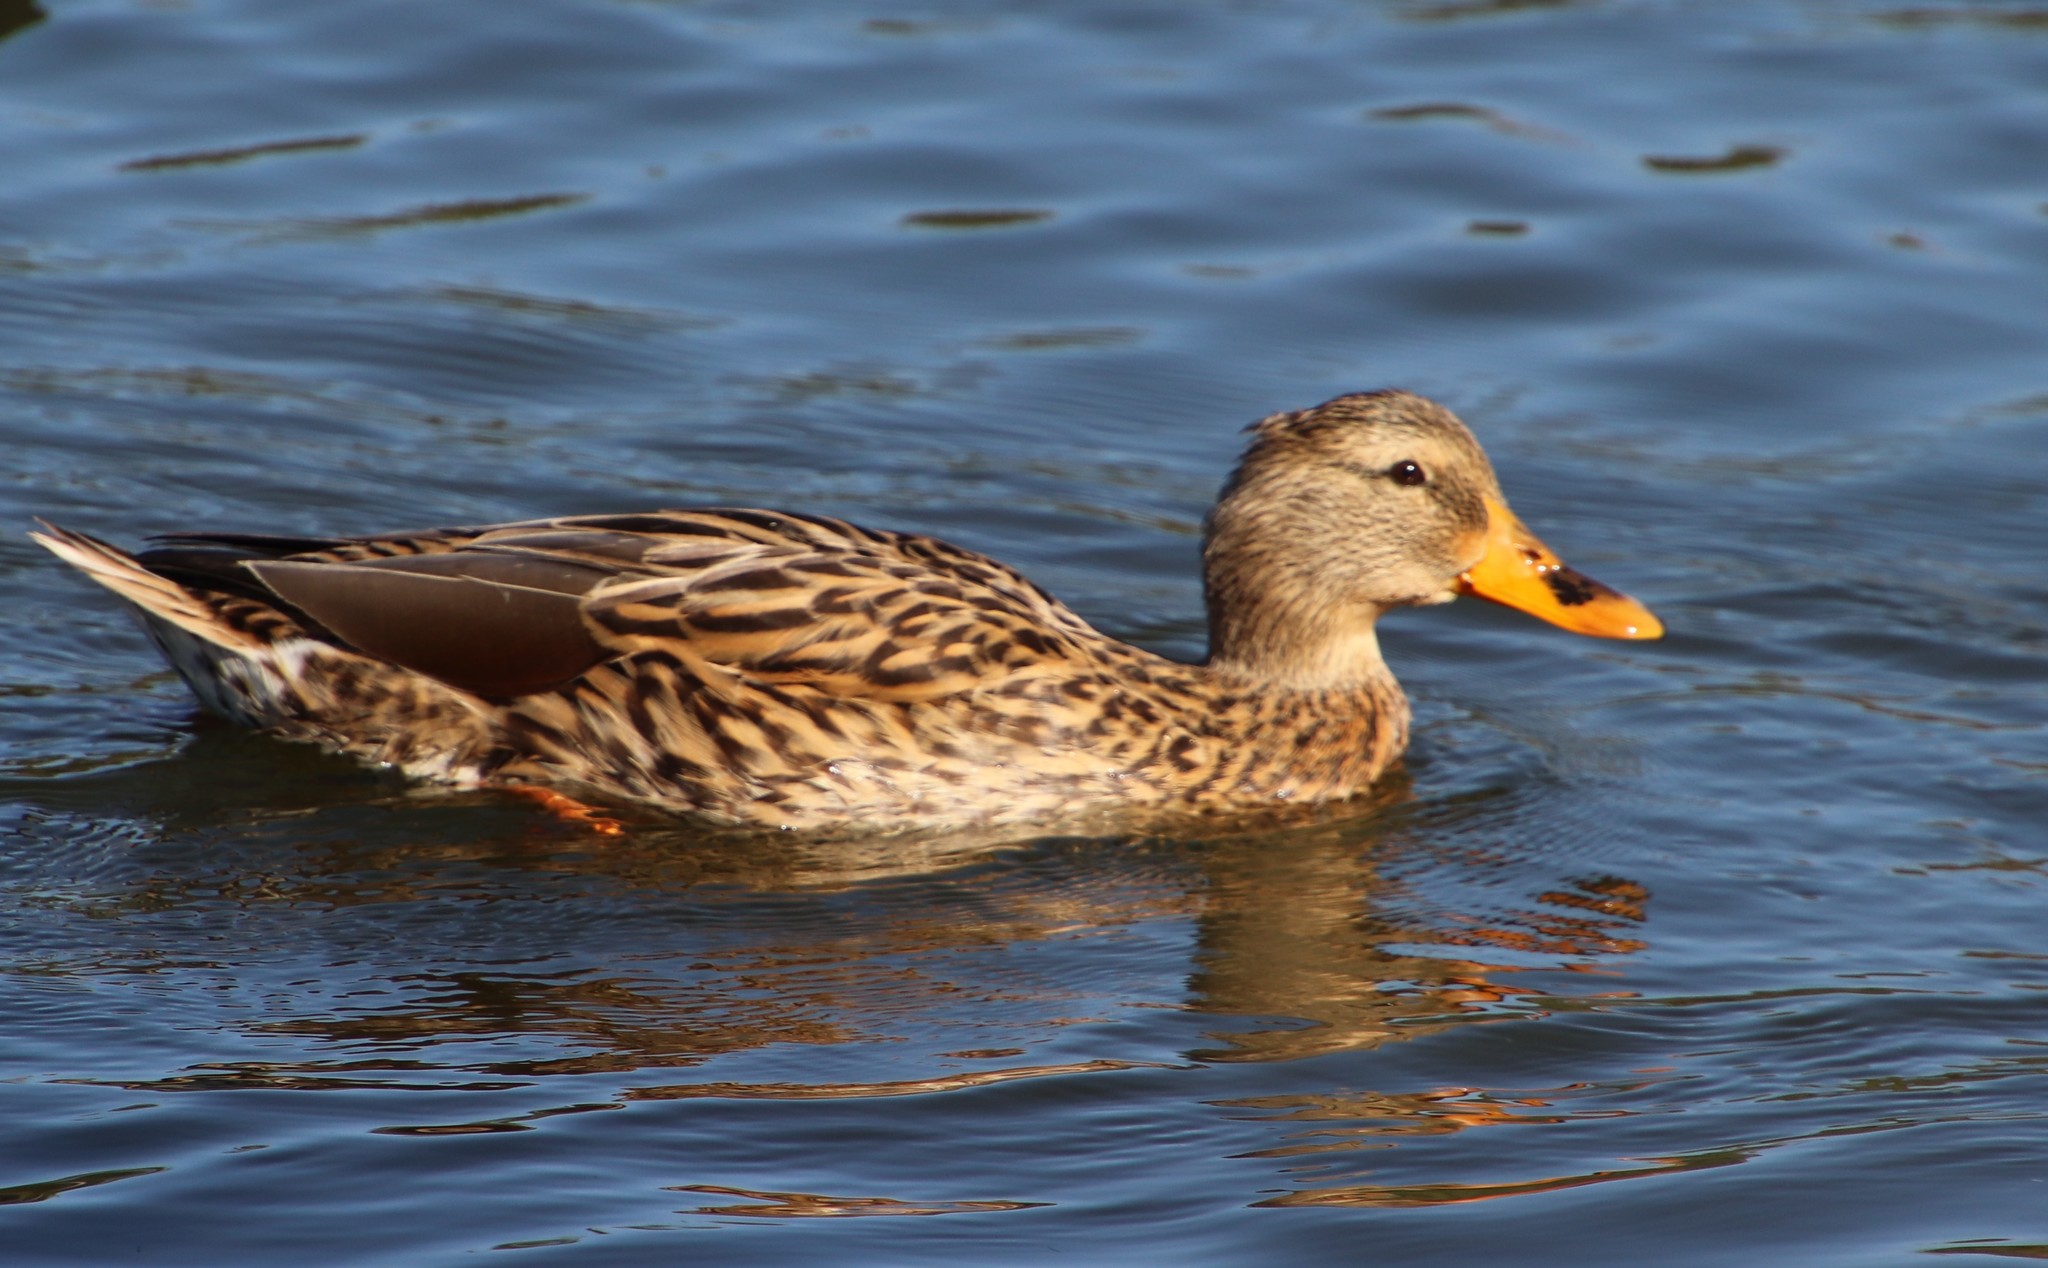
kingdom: Animalia
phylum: Chordata
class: Aves
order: Anseriformes
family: Anatidae
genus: Anas
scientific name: Anas platyrhynchos
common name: Mallard
